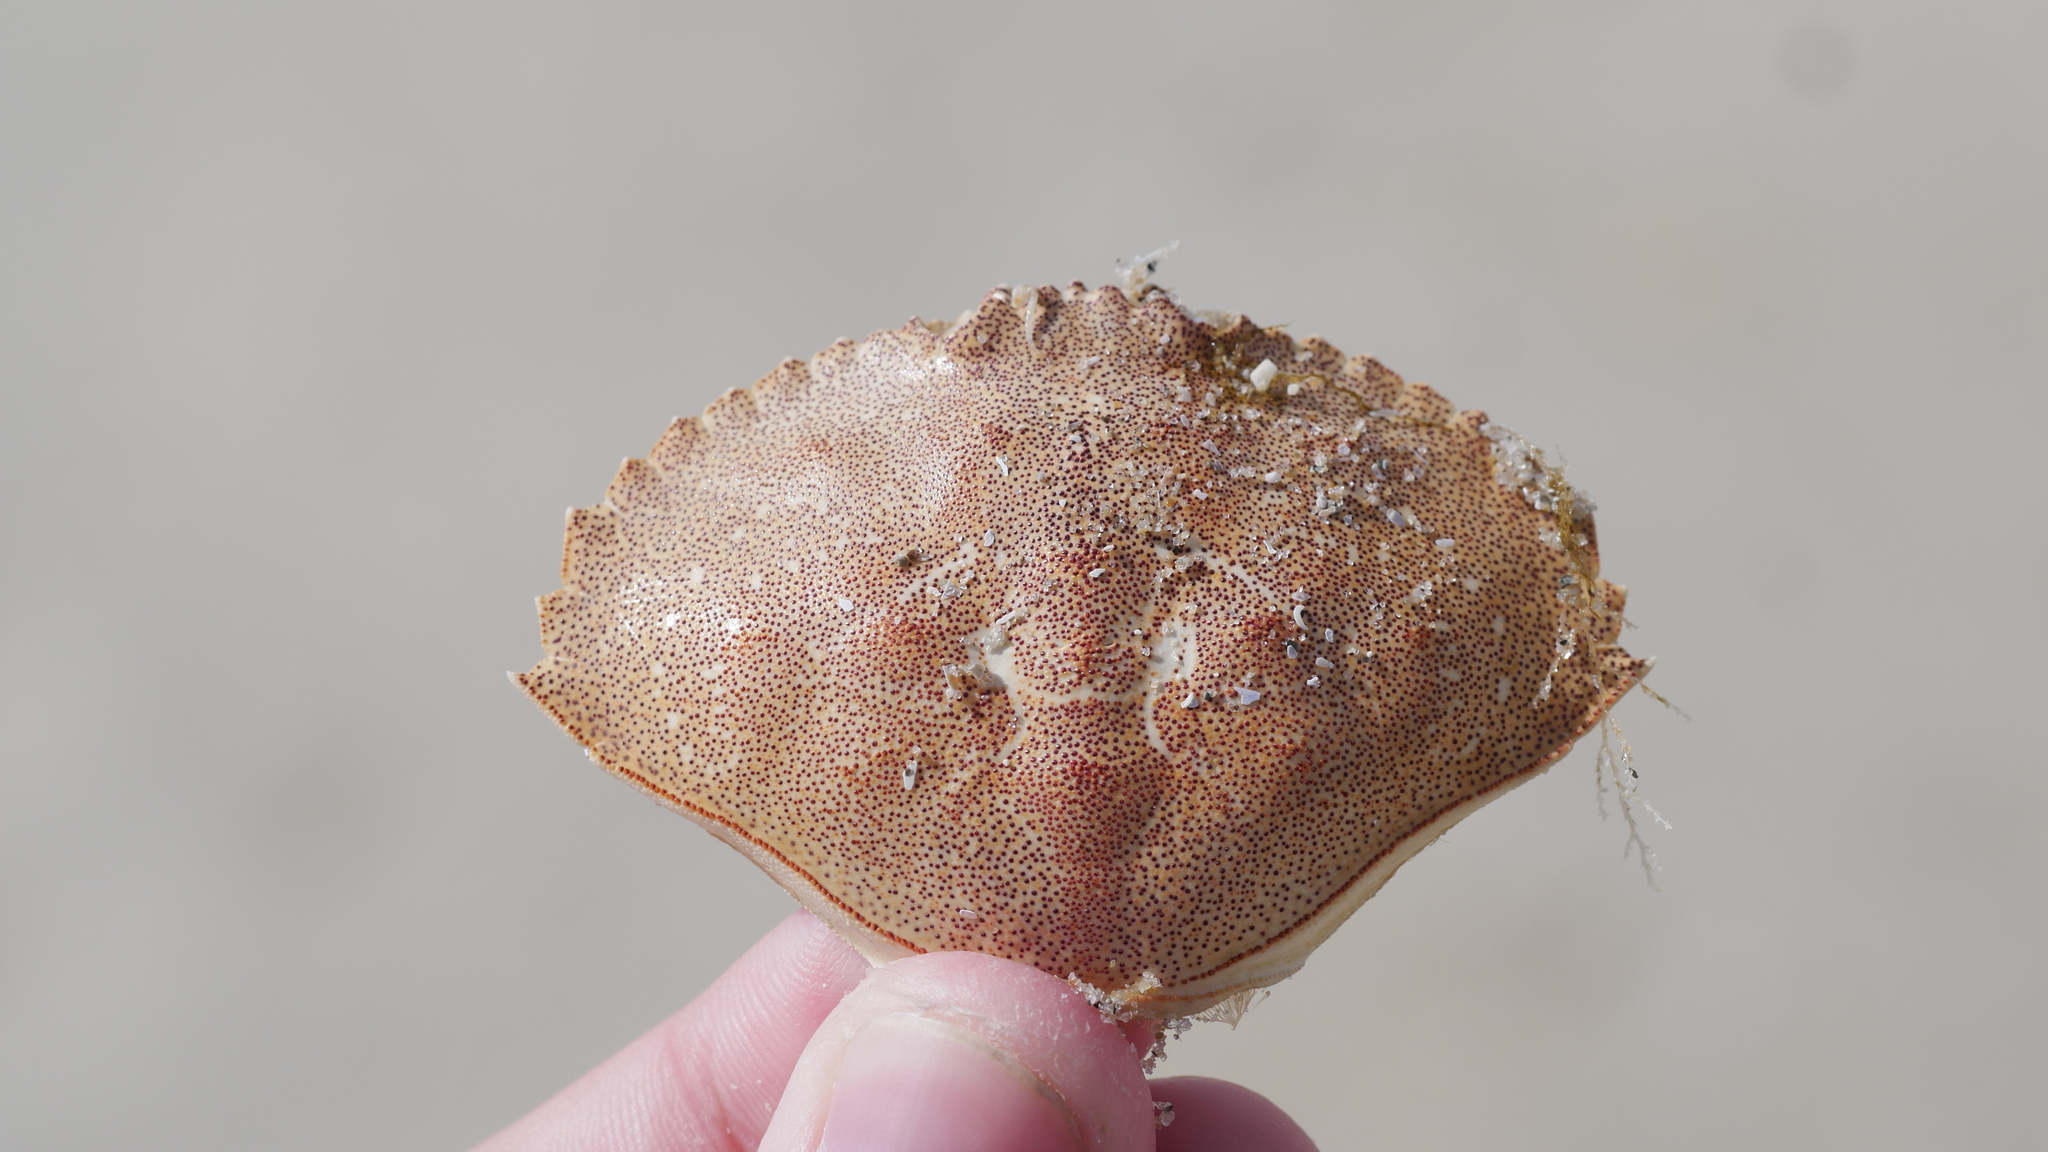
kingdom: Animalia
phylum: Arthropoda
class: Malacostraca
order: Decapoda
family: Cancridae
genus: Cancer
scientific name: Cancer irroratus
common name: Atlantic rock crab
